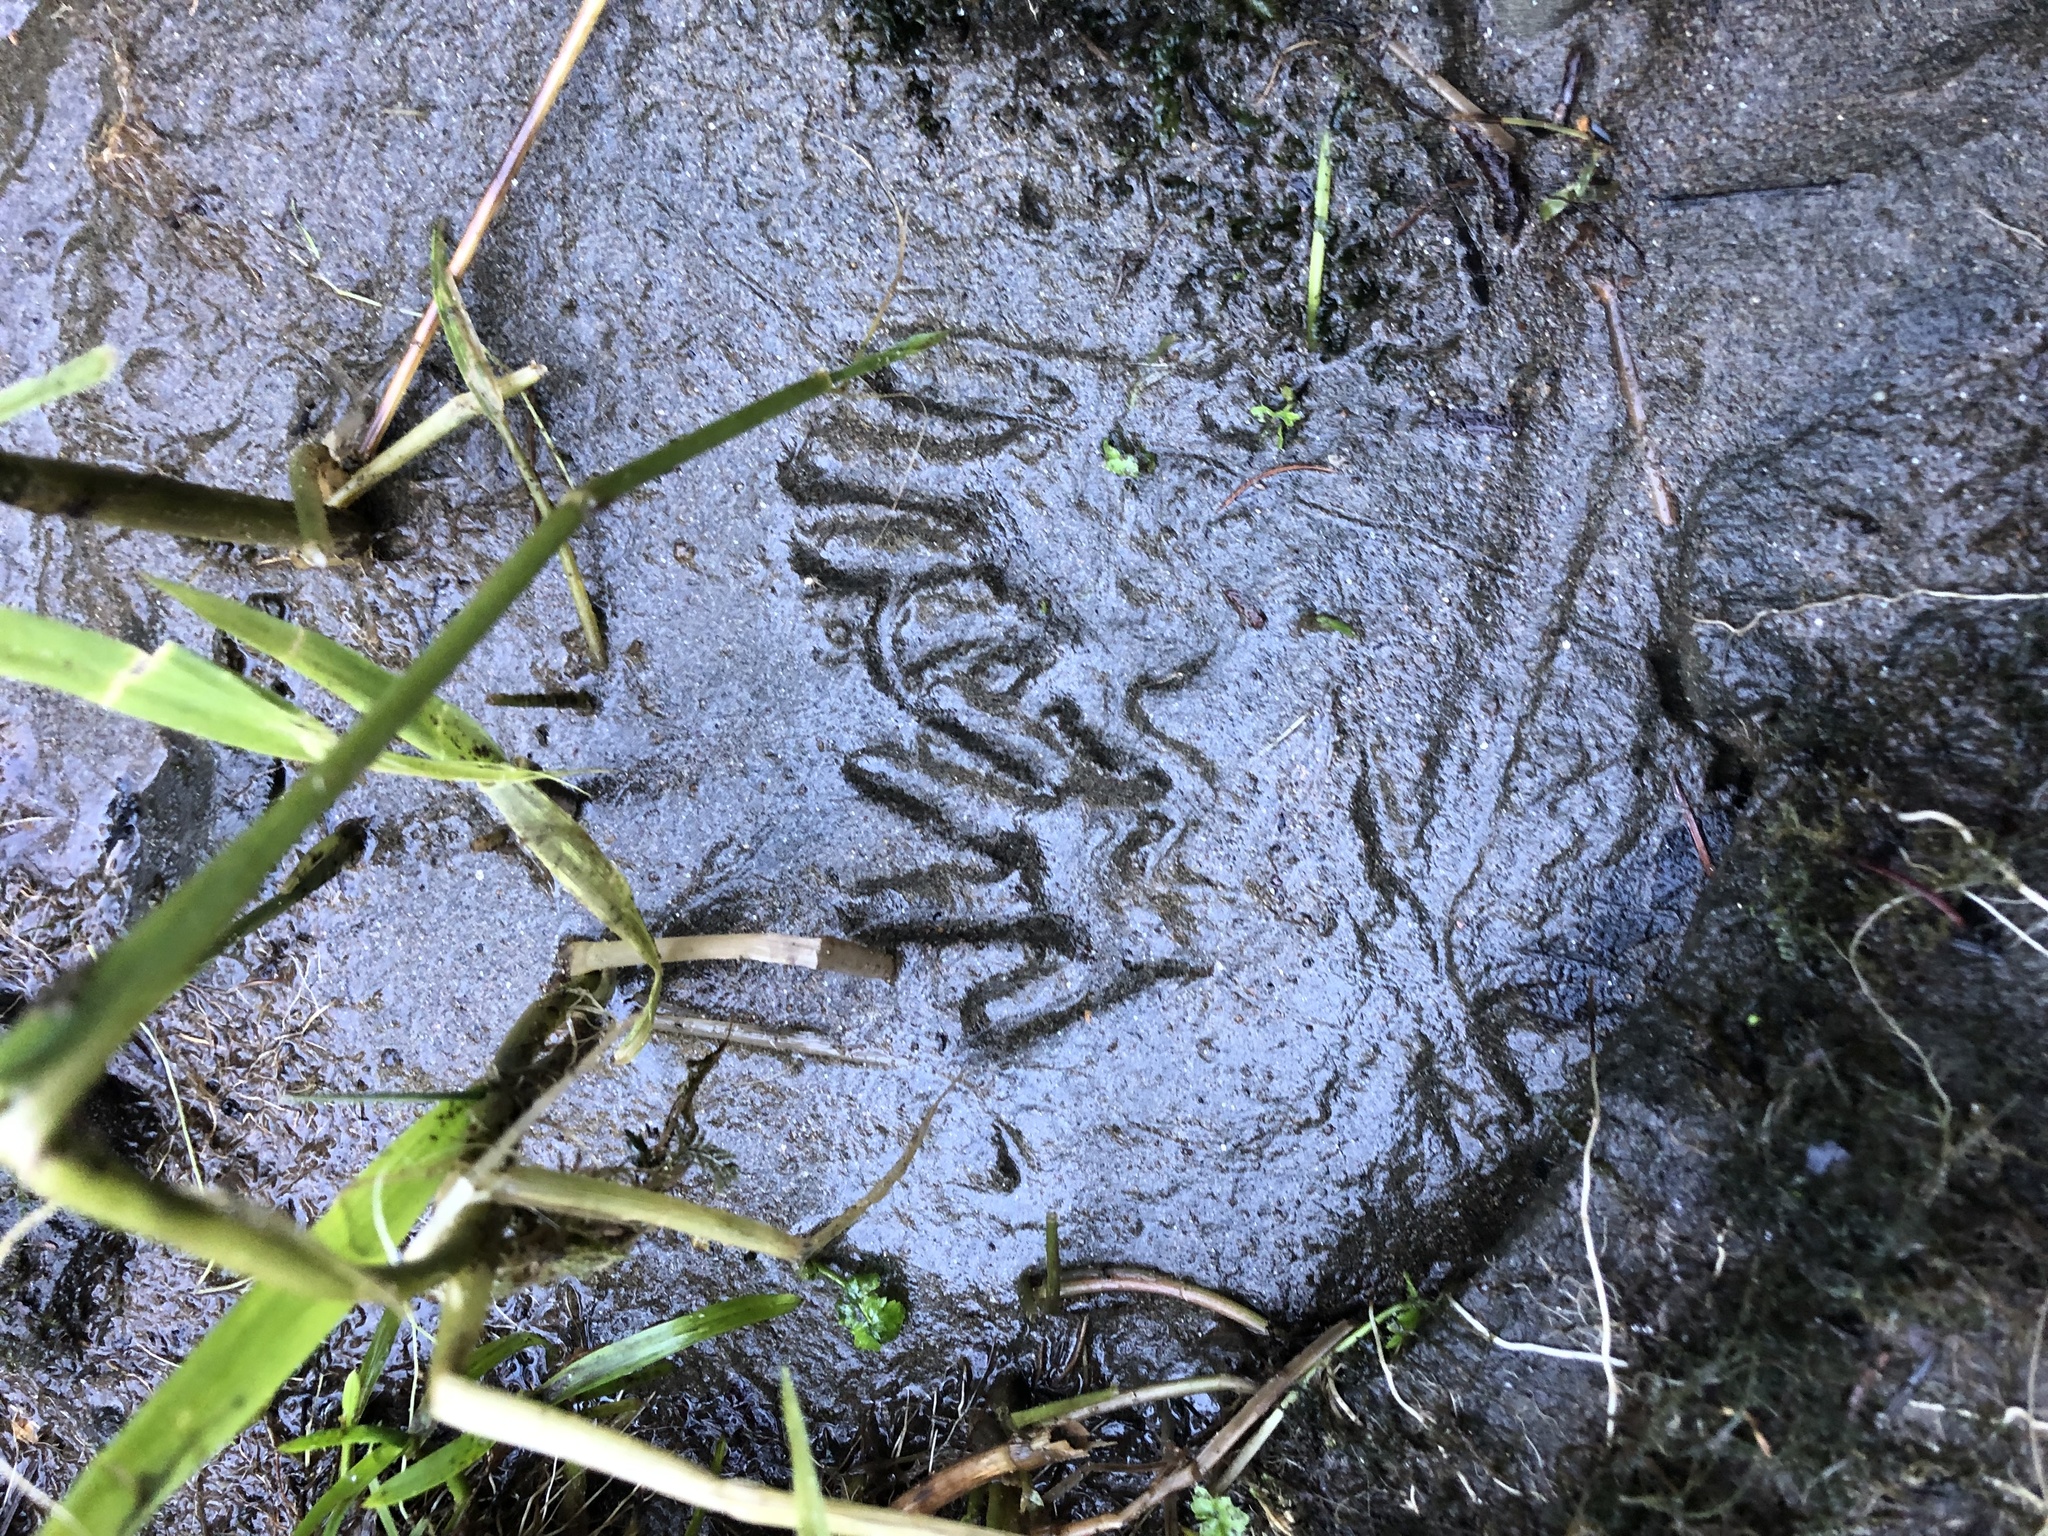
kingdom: Animalia
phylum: Chordata
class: Mammalia
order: Carnivora
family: Procyonidae
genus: Procyon
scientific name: Procyon lotor
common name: Raccoon
